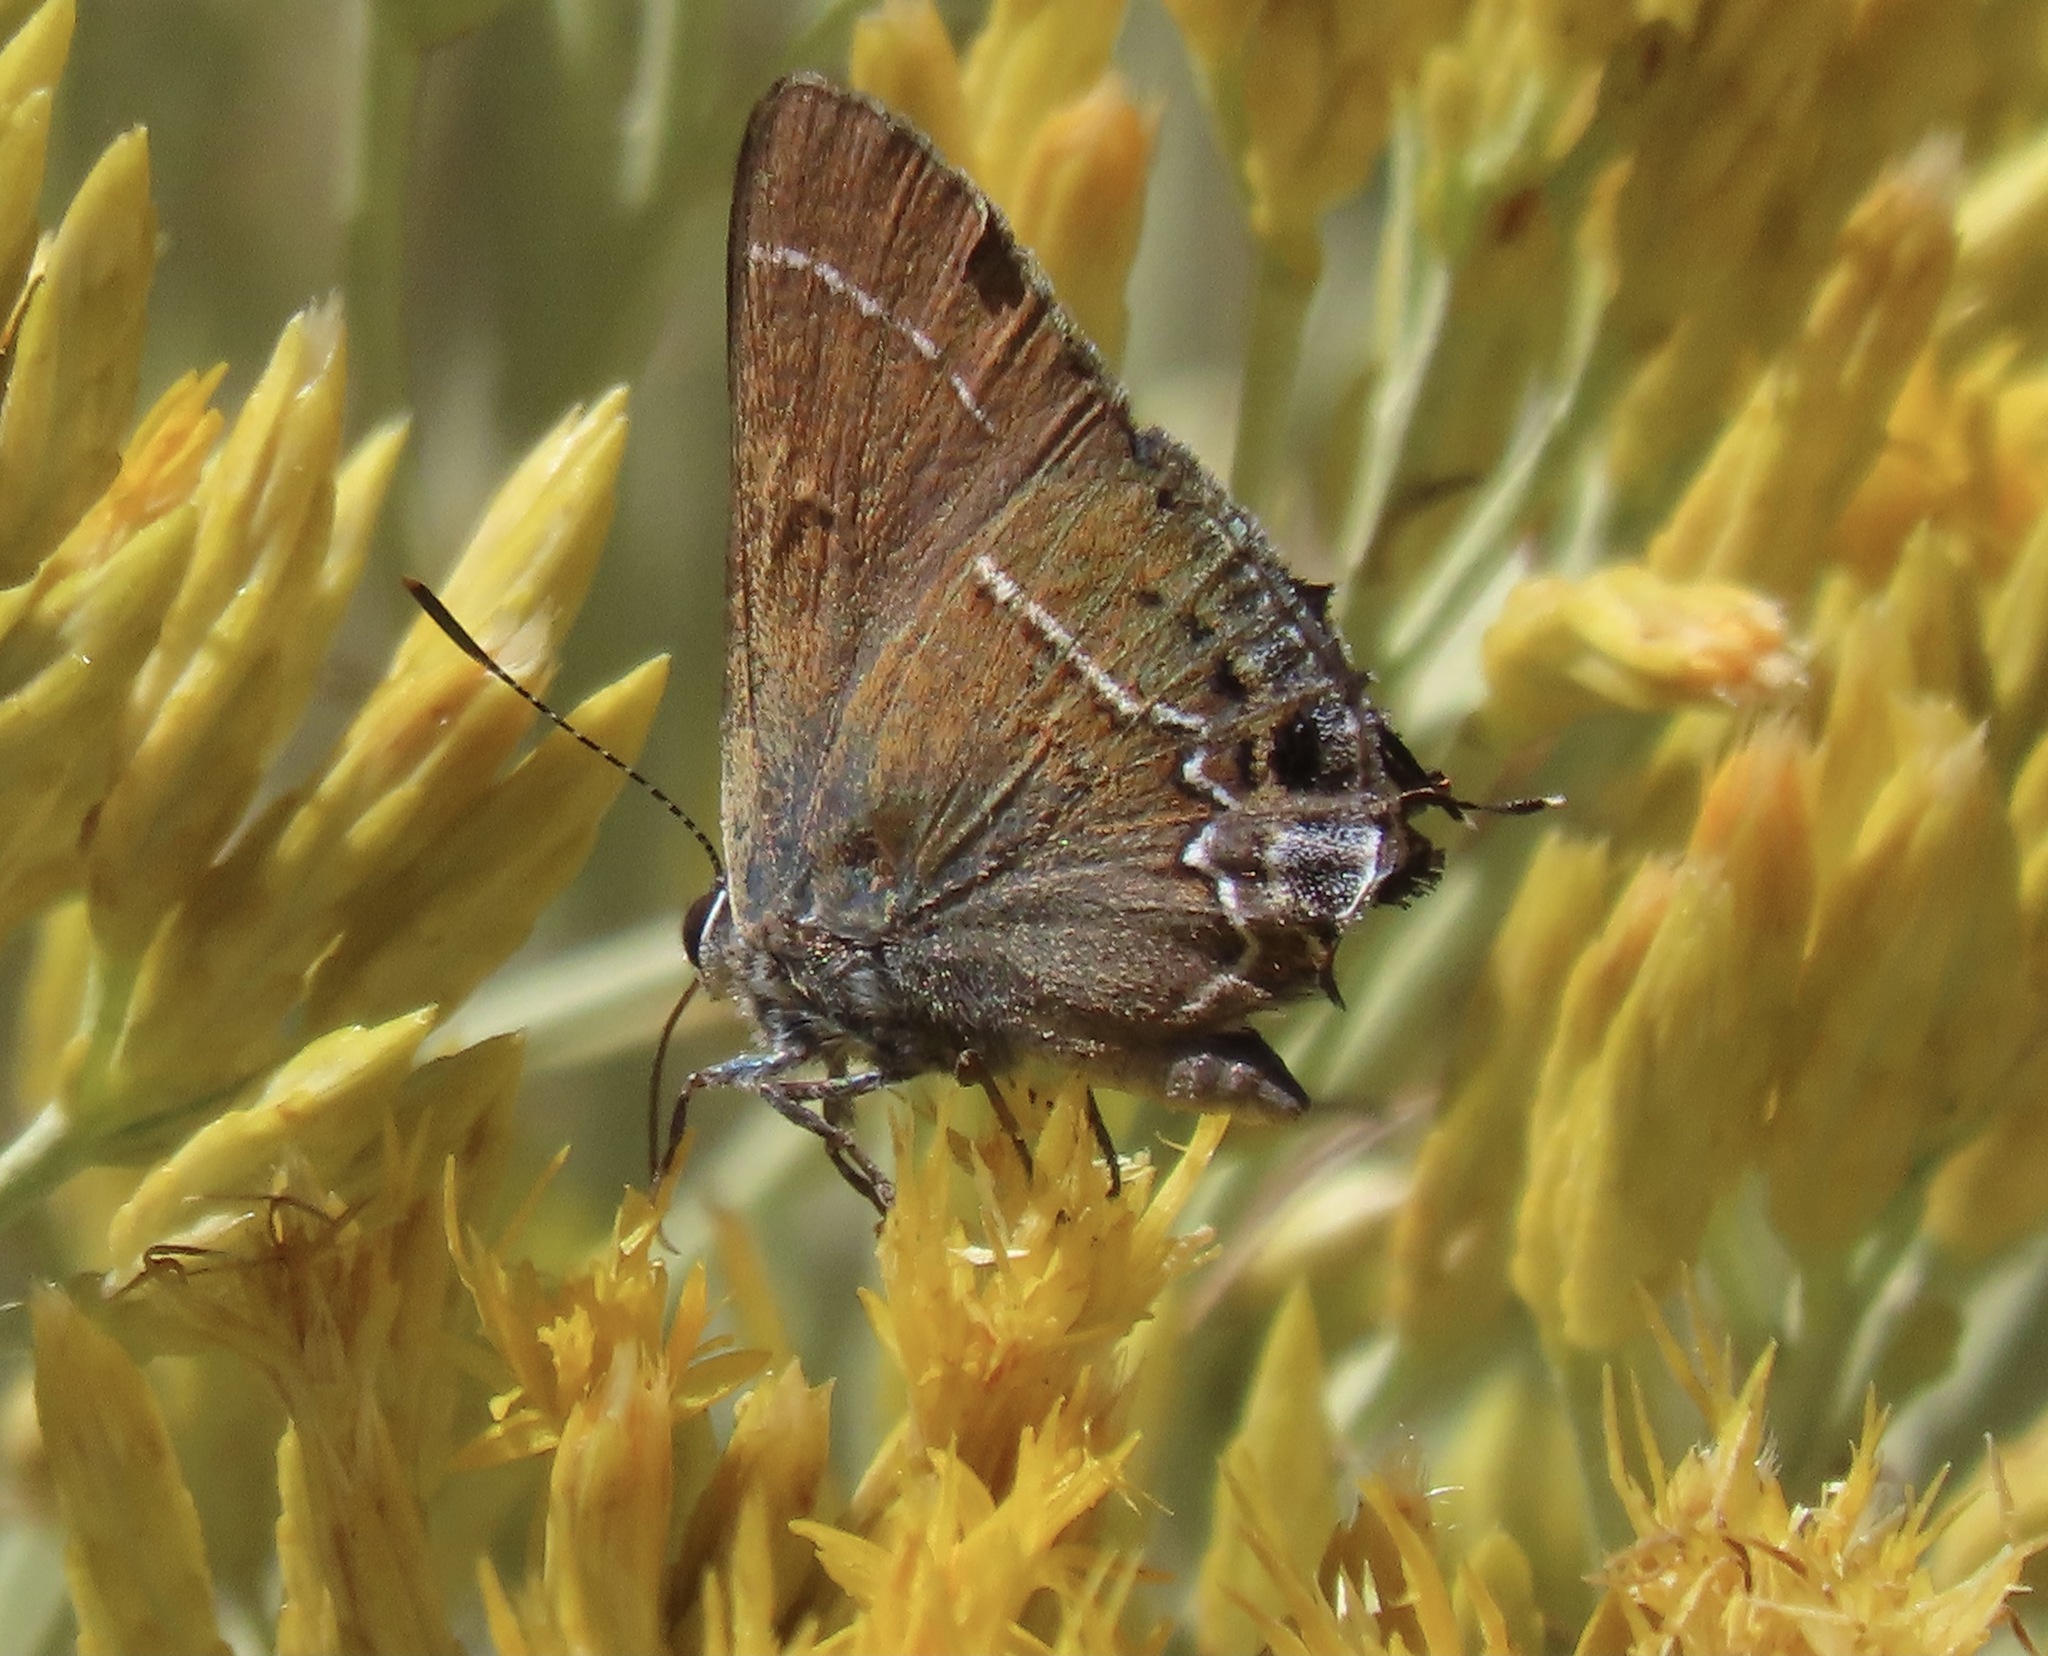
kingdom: Animalia
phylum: Arthropoda
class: Insecta
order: Lepidoptera
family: Lycaenidae
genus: Mitoura
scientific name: Mitoura spinetorum
